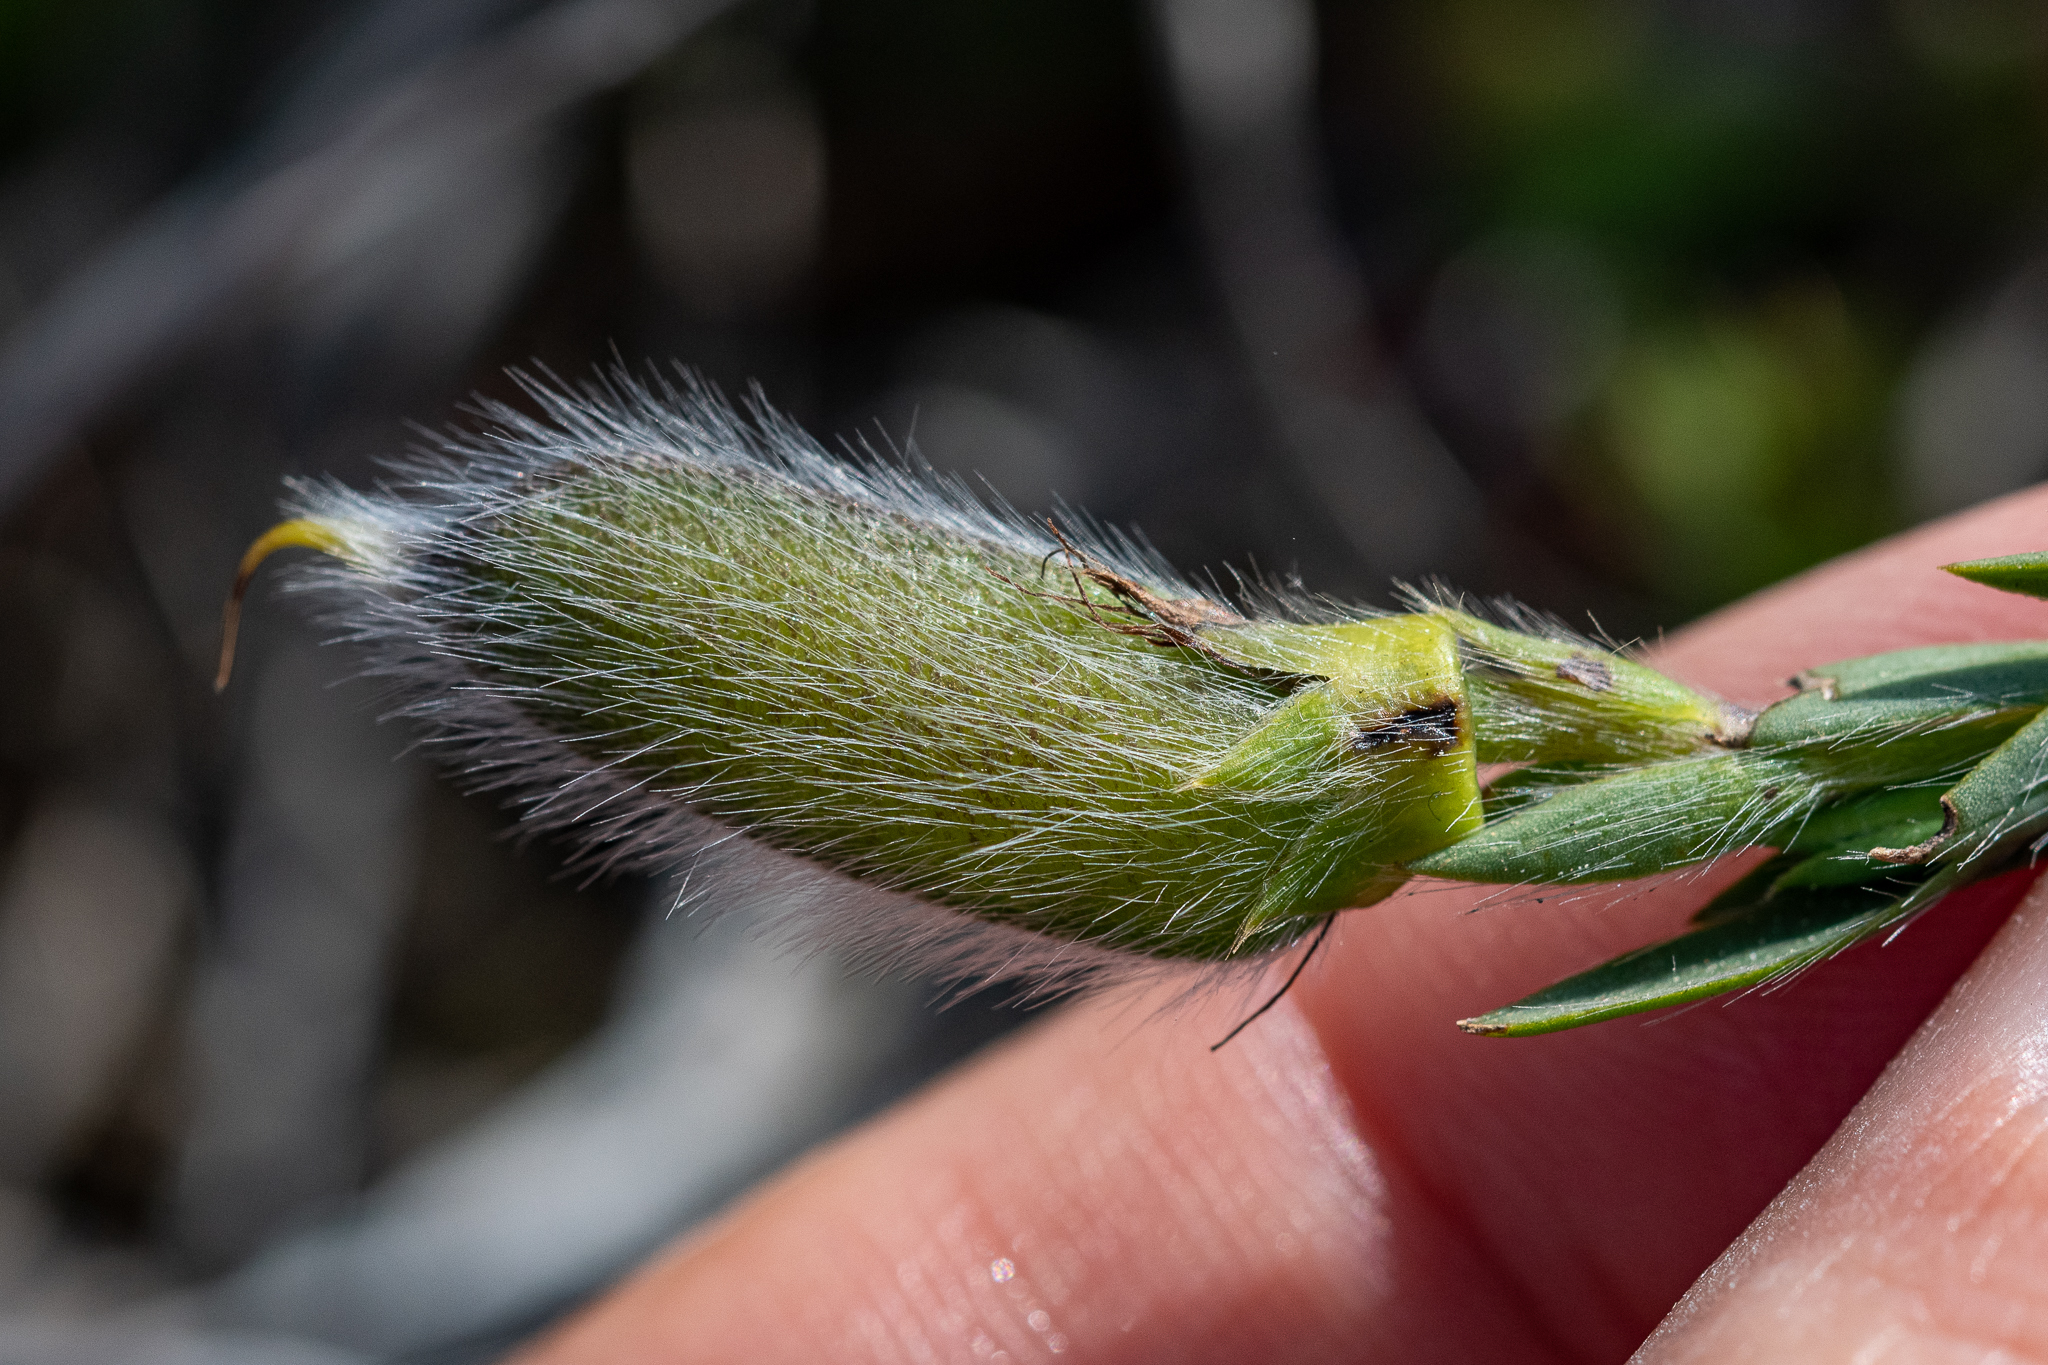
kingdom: Plantae
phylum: Tracheophyta
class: Magnoliopsida
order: Fabales
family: Fabaceae
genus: Liparia
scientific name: Liparia angustifolia
